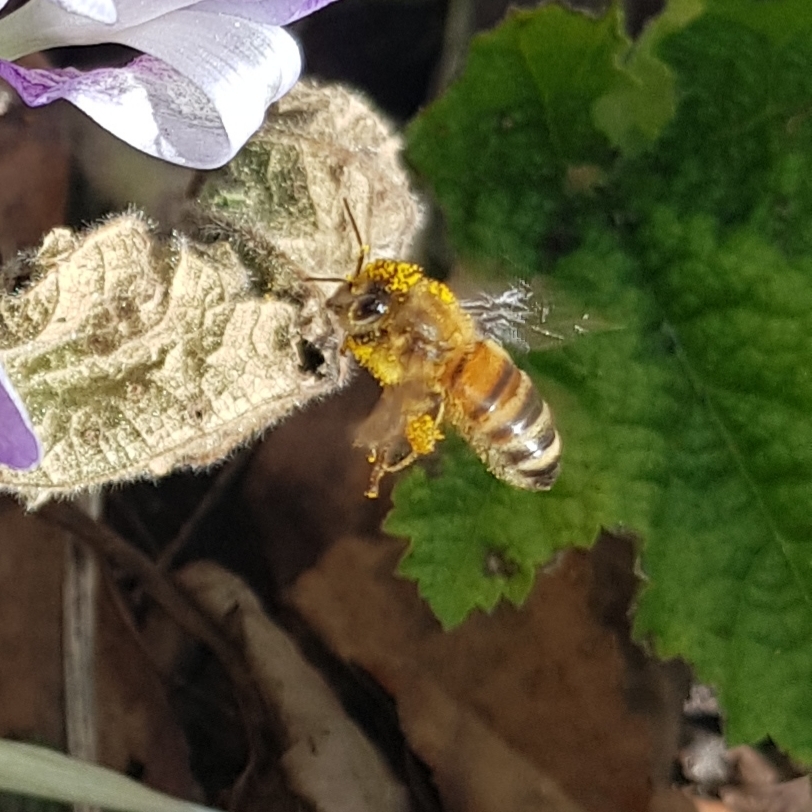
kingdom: Animalia
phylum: Arthropoda
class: Insecta
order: Hymenoptera
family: Apidae
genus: Apis
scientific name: Apis mellifera
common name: Honey bee
